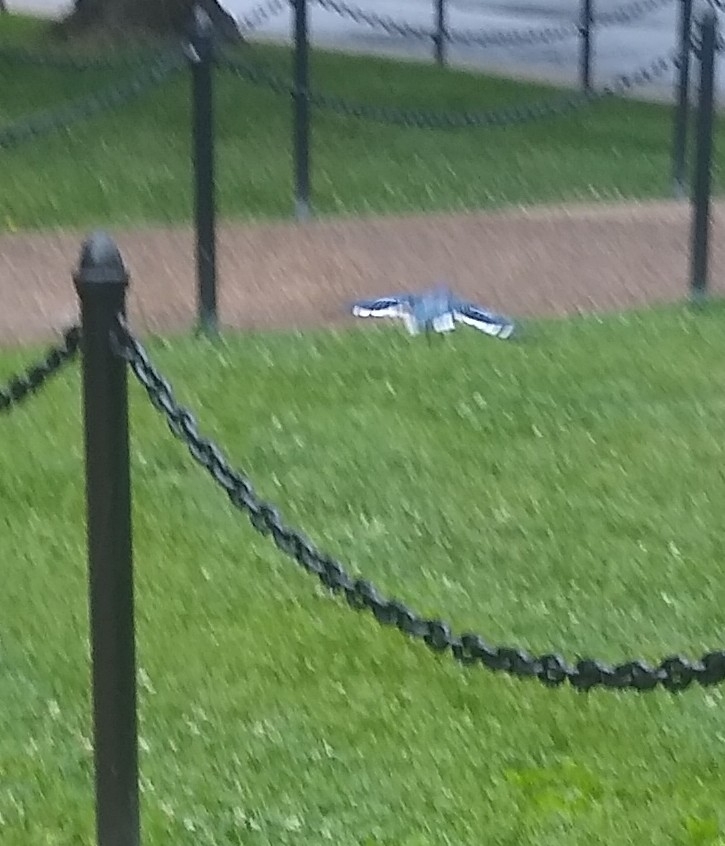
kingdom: Animalia
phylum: Chordata
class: Aves
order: Passeriformes
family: Corvidae
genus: Cyanocitta
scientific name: Cyanocitta cristata
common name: Blue jay
